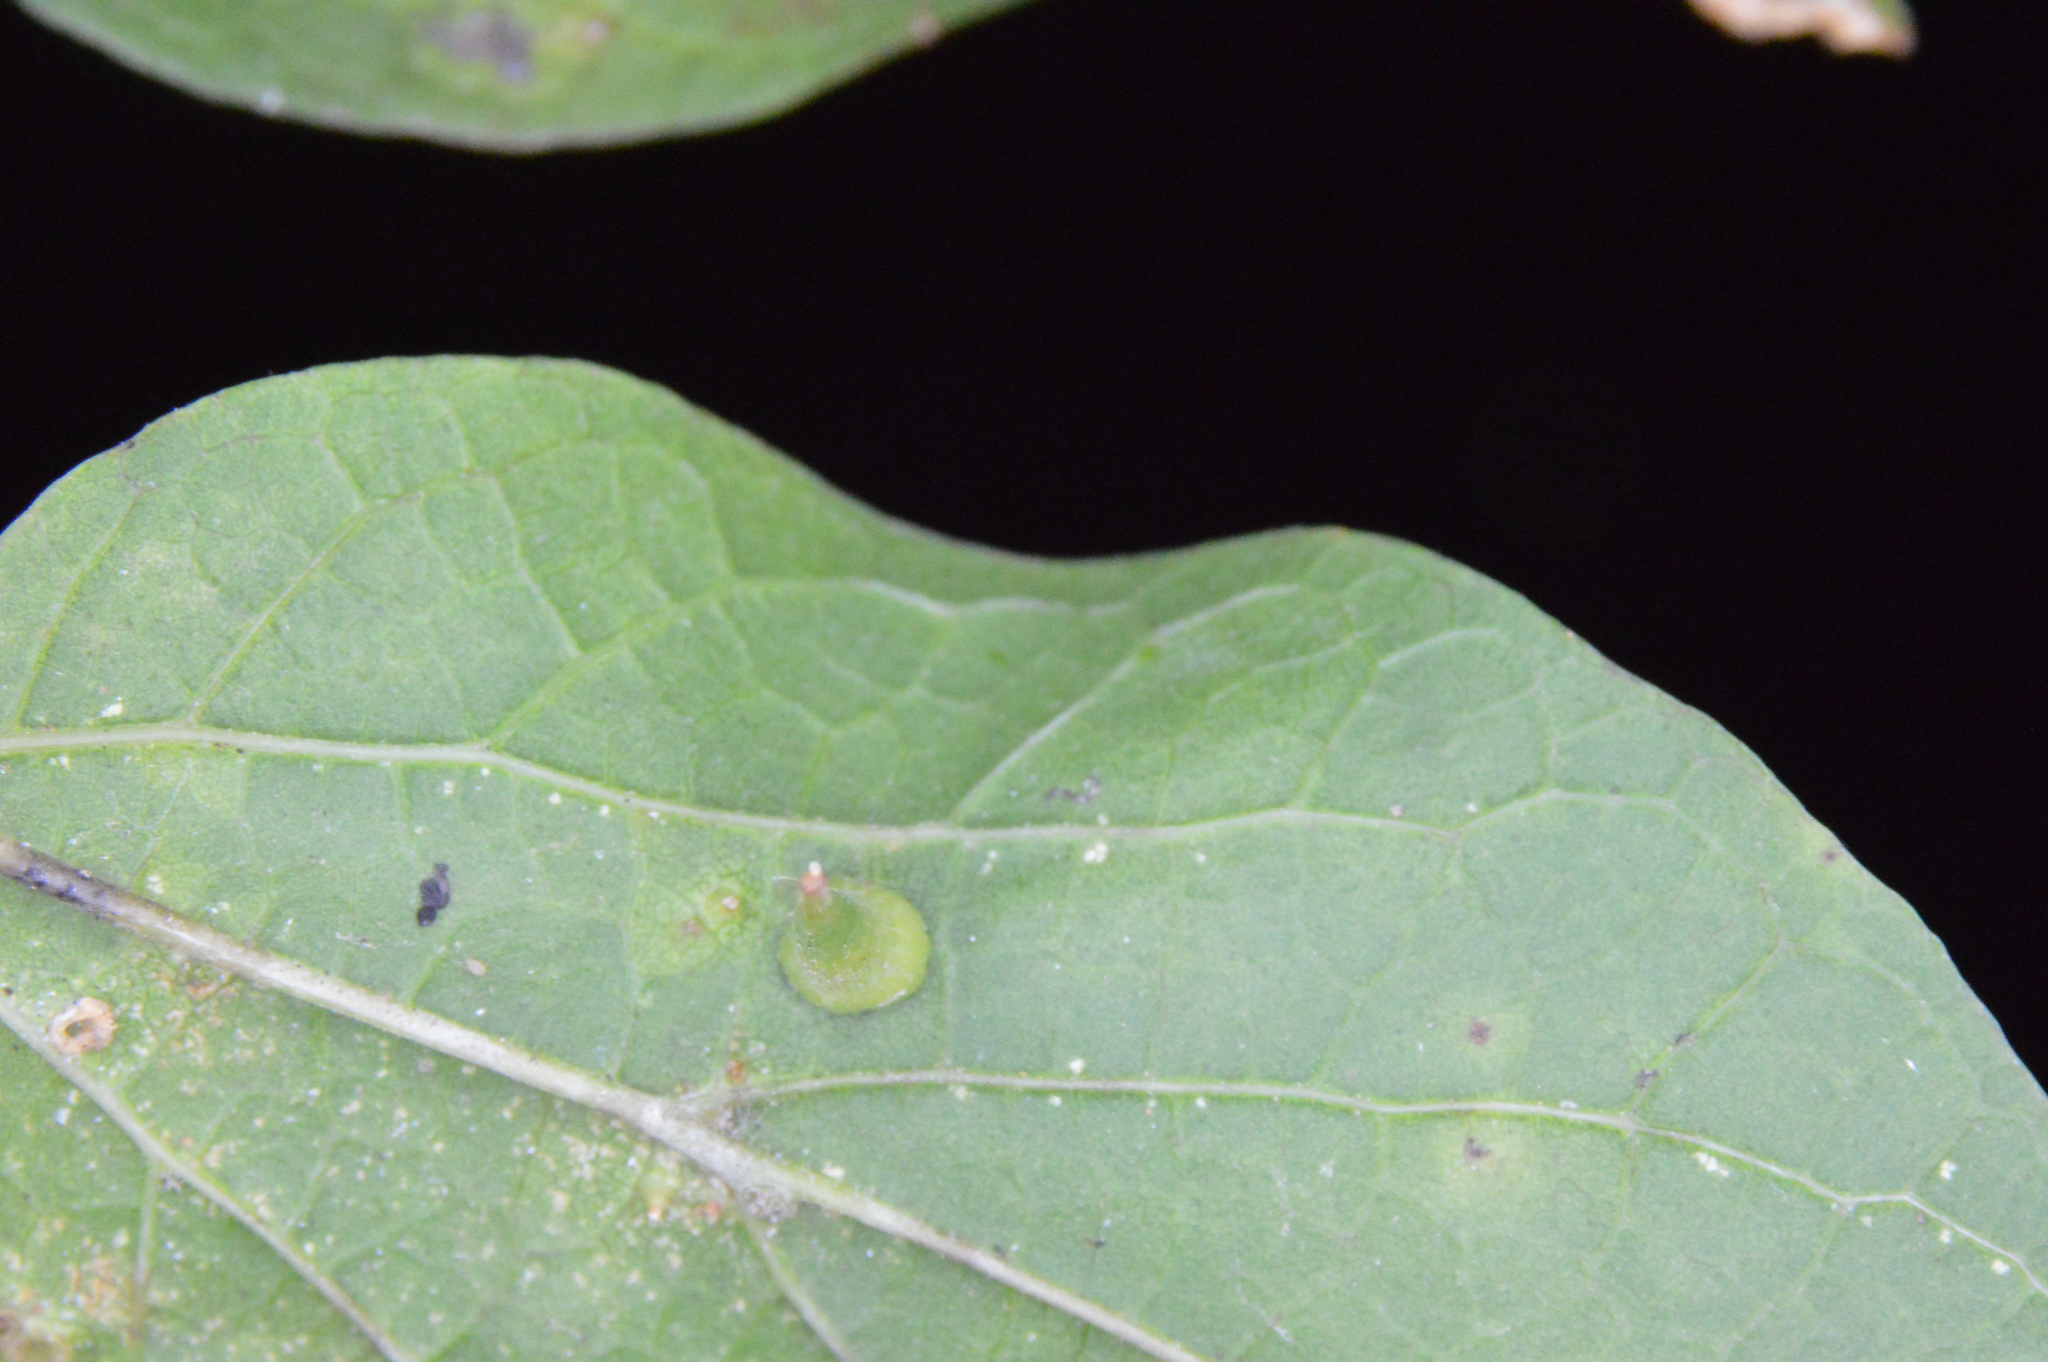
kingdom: Animalia
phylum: Arthropoda
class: Insecta
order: Diptera
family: Cecidomyiidae
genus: Celticecis
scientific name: Celticecis subulata
